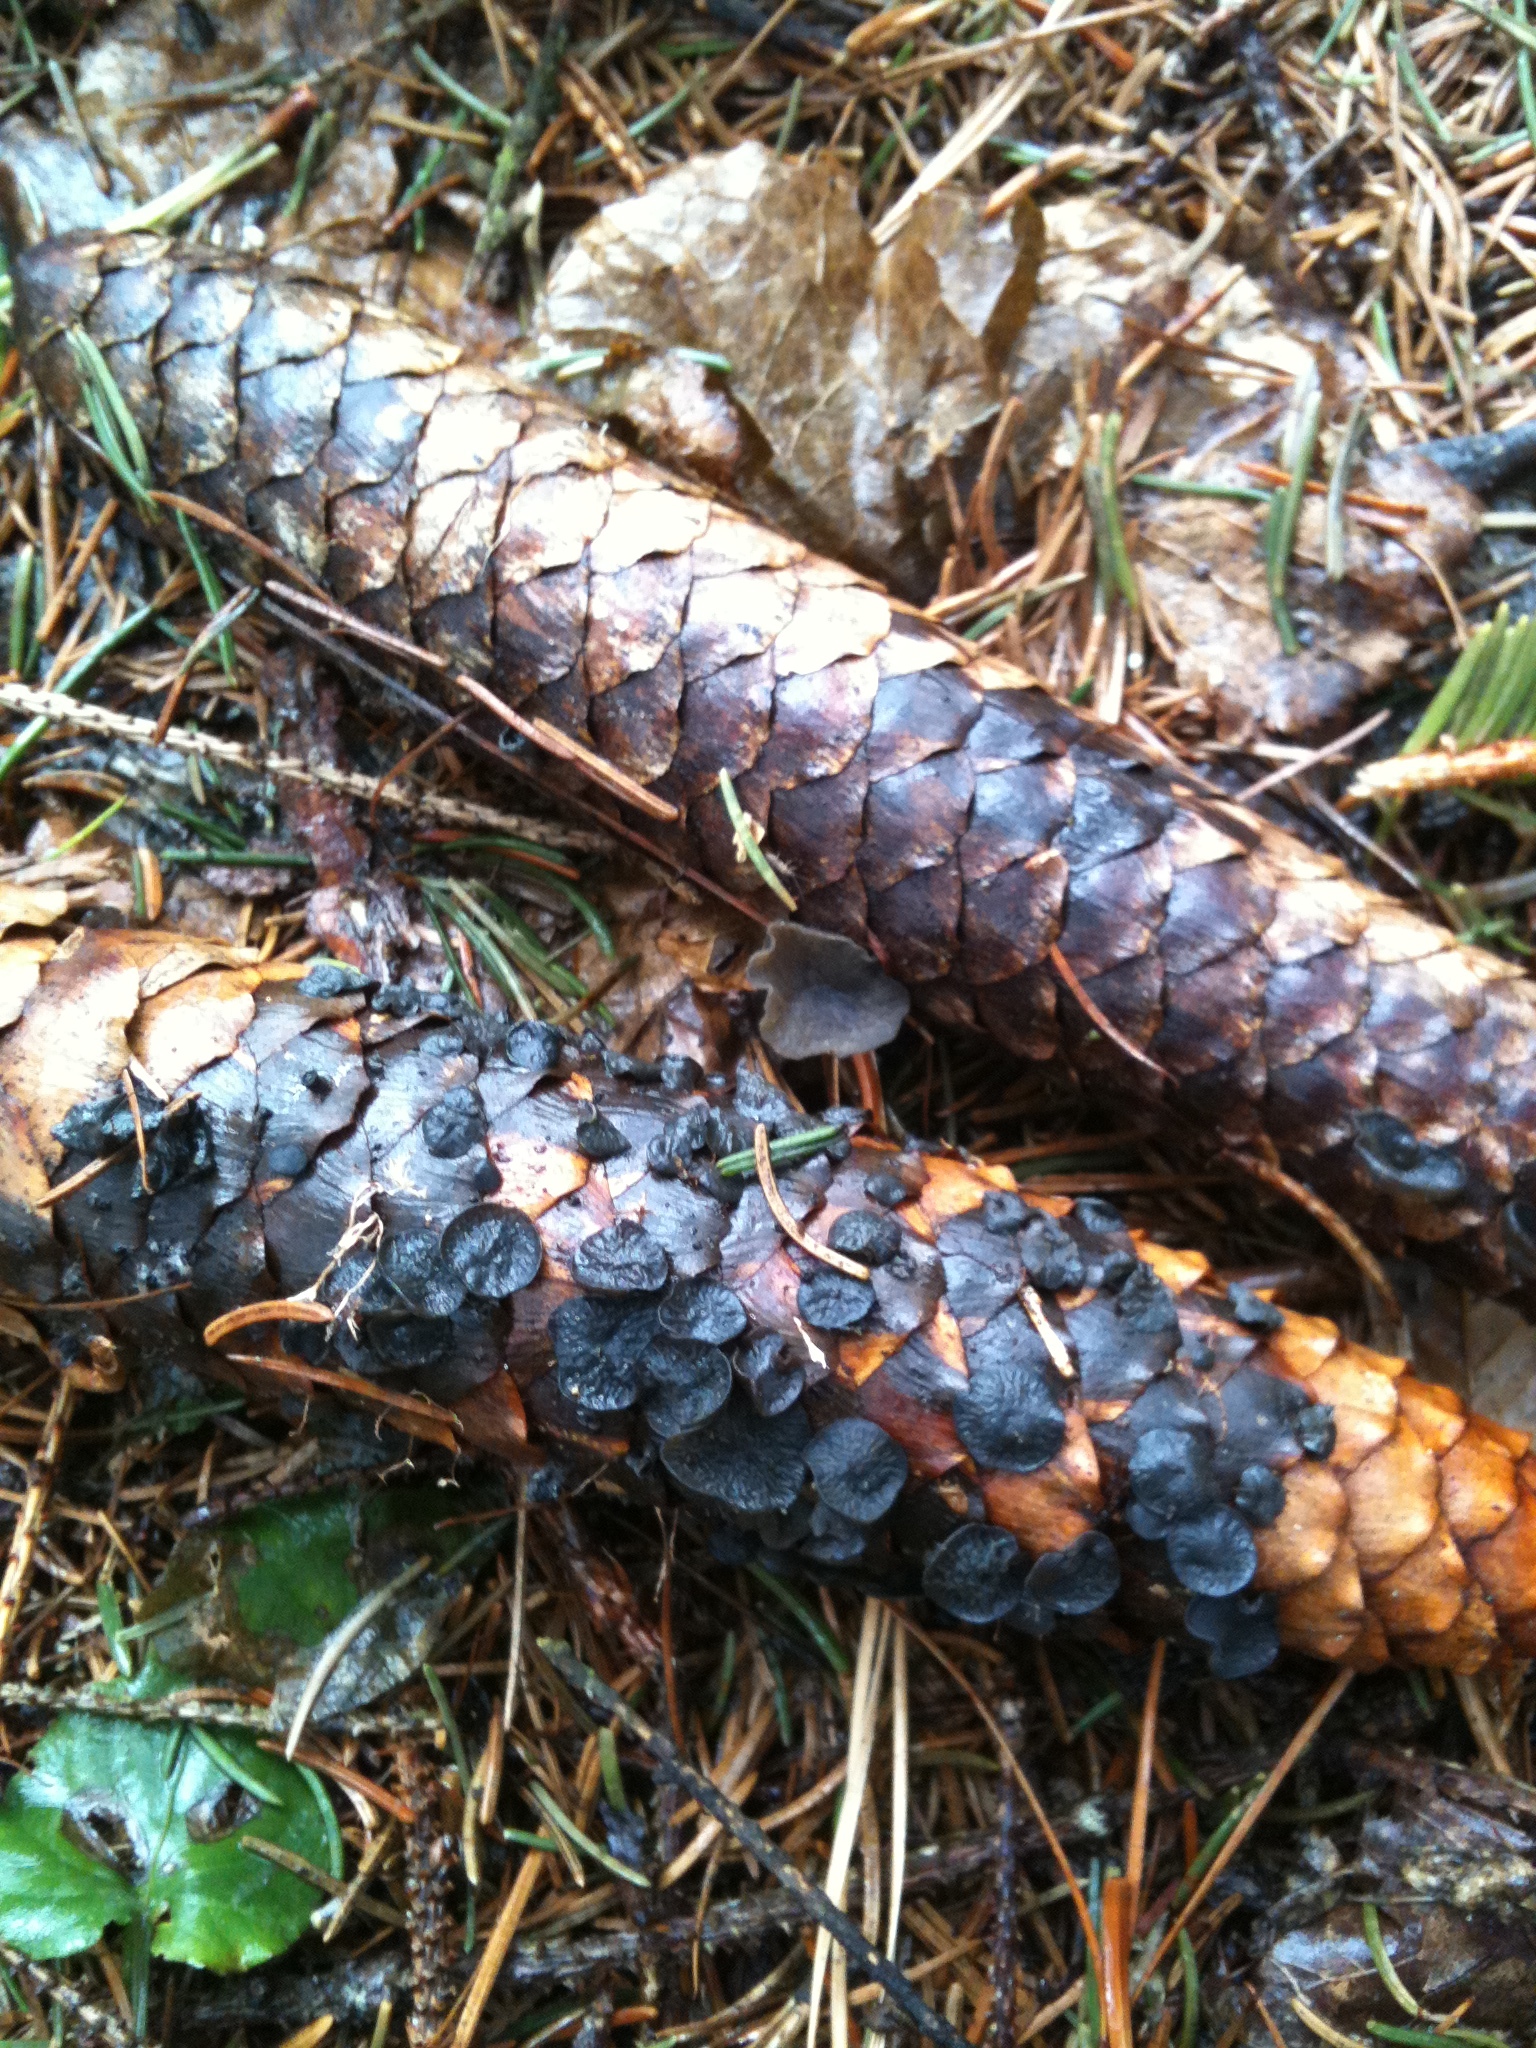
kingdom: Fungi
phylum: Ascomycota
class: Leotiomycetes
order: Helotiales
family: Rutstroemiaceae
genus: Rutstroemia
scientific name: Rutstroemia bulgarioides
